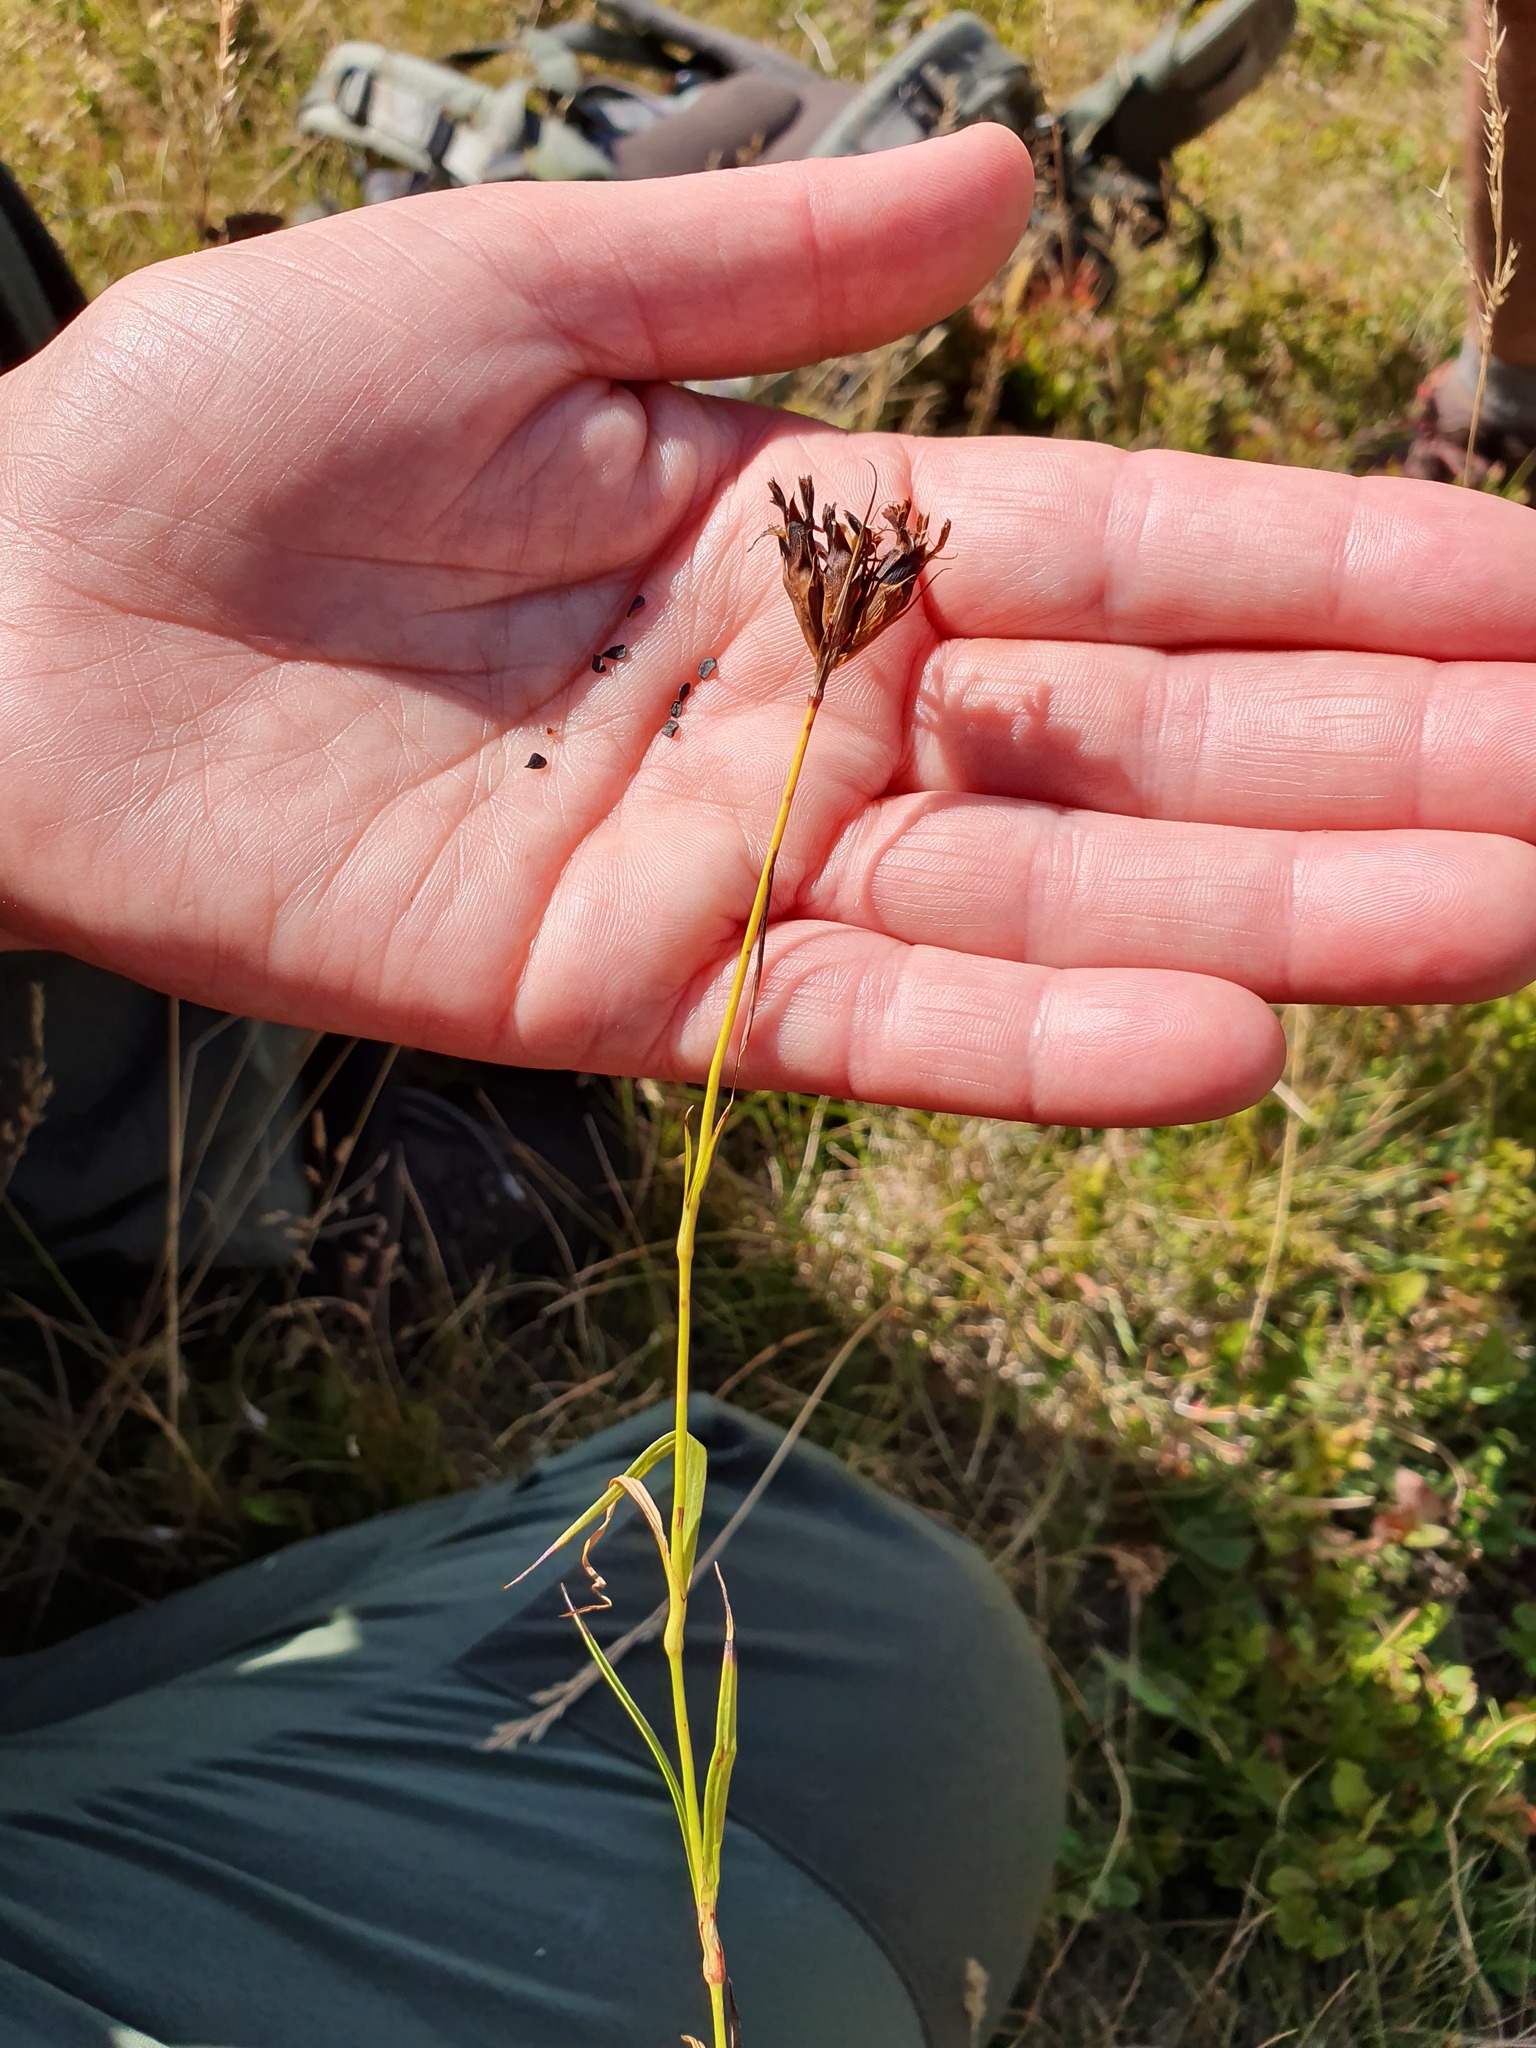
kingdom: Plantae
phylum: Tracheophyta
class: Magnoliopsida
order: Caryophyllales
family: Caryophyllaceae
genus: Dianthus
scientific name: Dianthus pancicii
